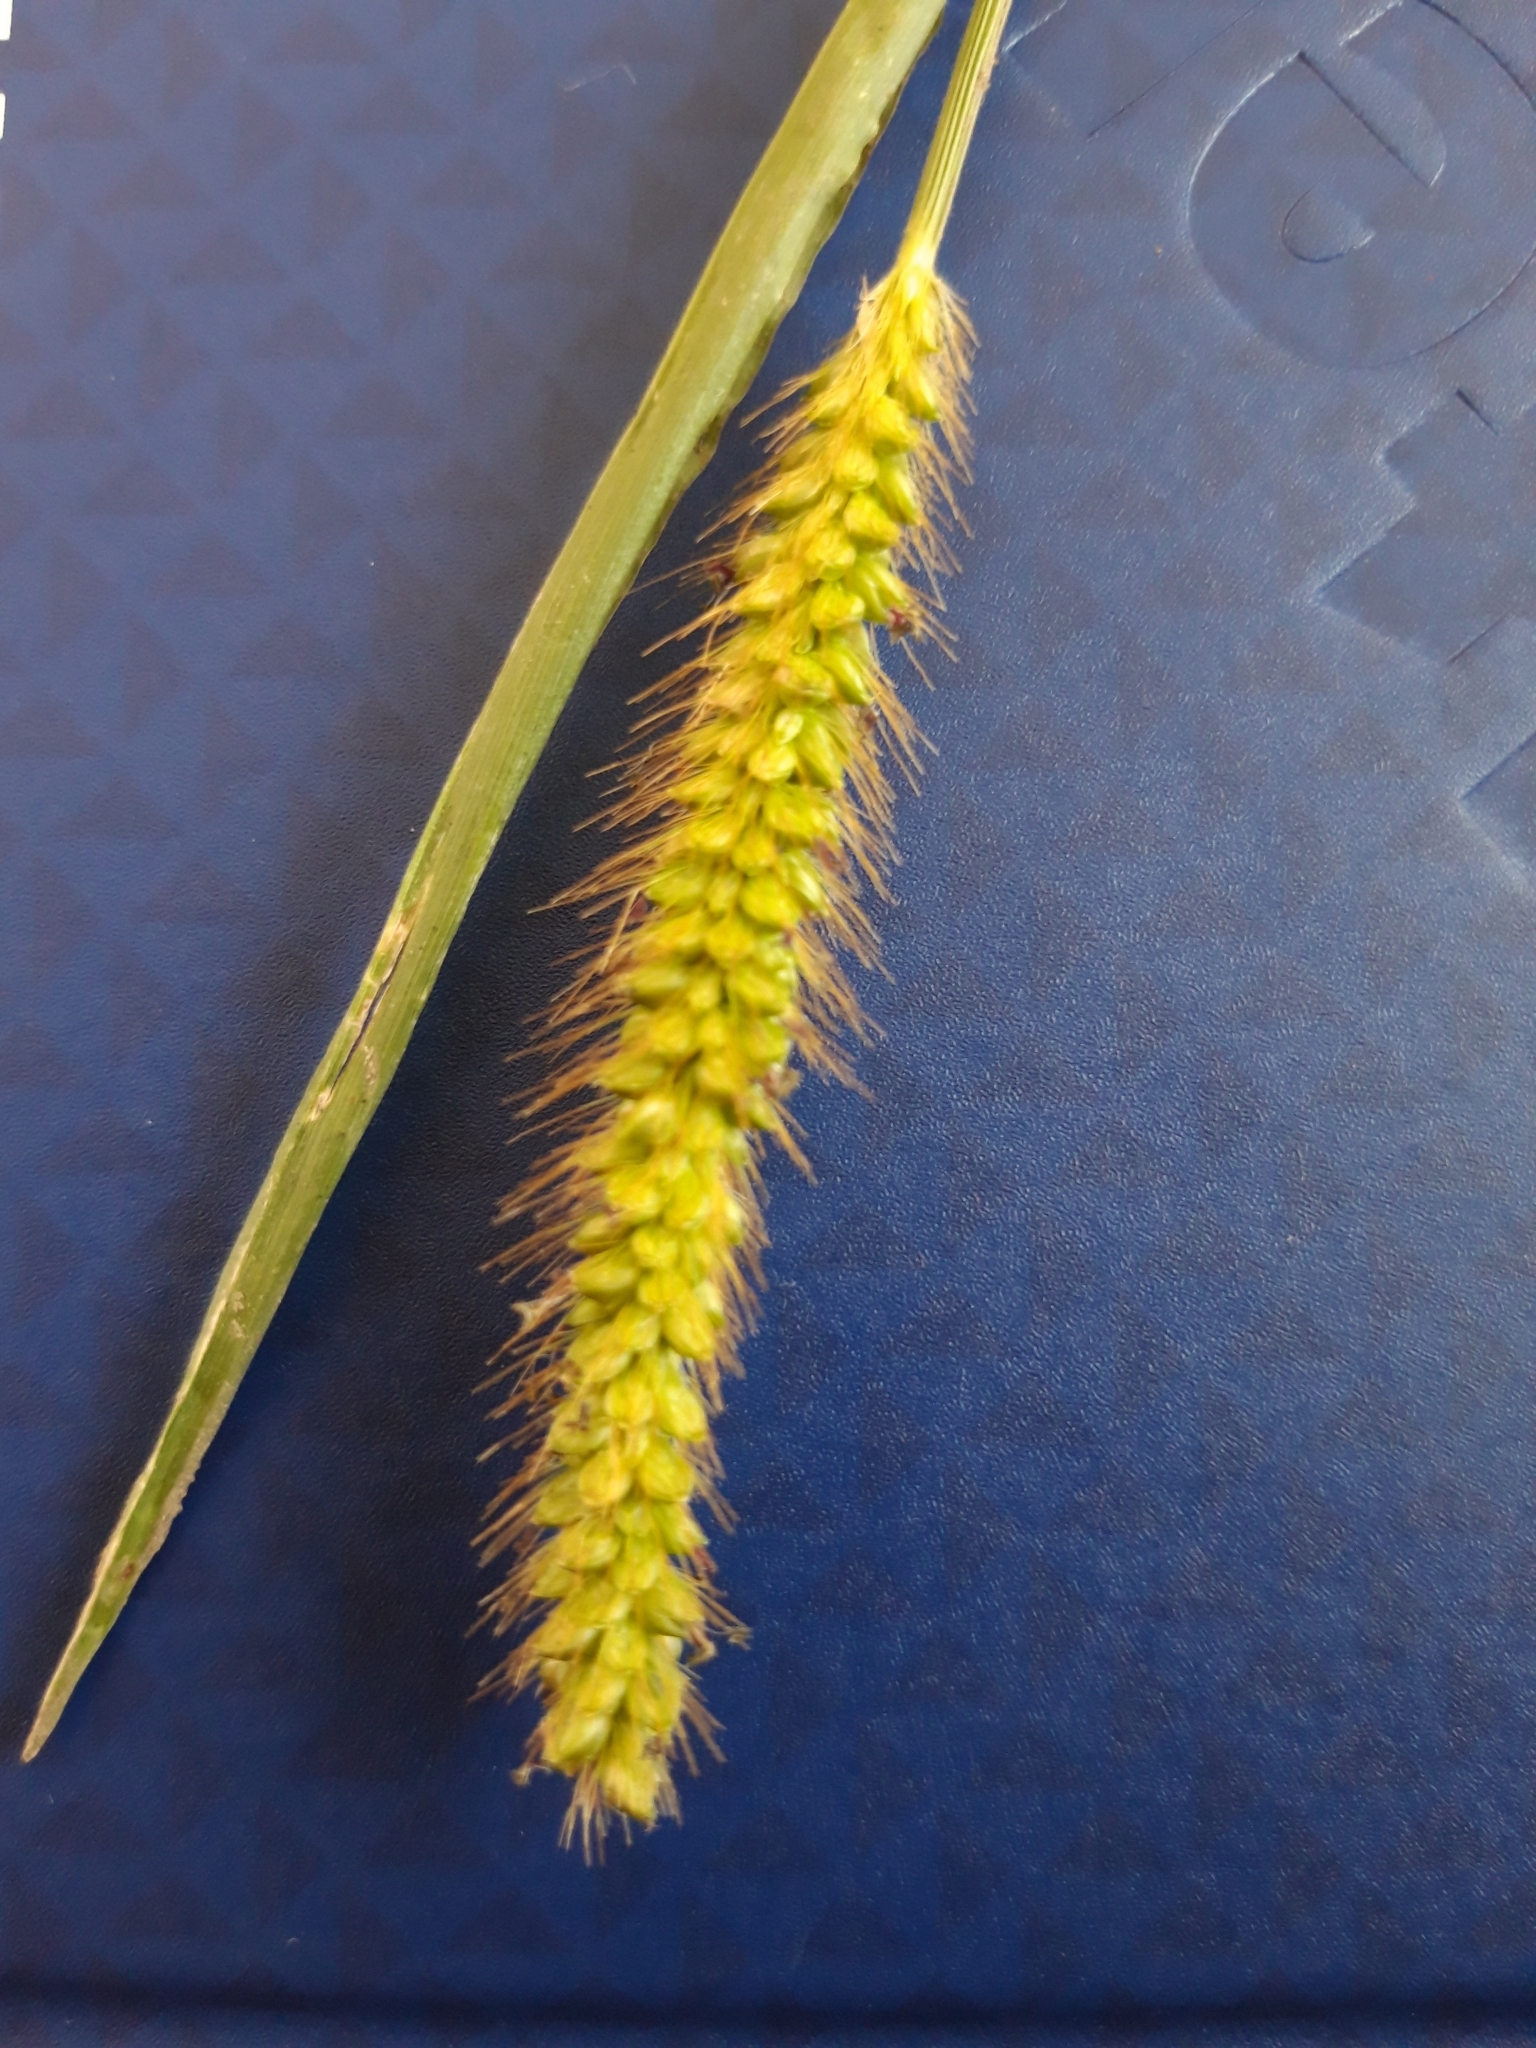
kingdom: Plantae
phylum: Tracheophyta
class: Liliopsida
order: Poales
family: Poaceae
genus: Setaria
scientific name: Setaria pumila
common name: Yellow bristle-grass
